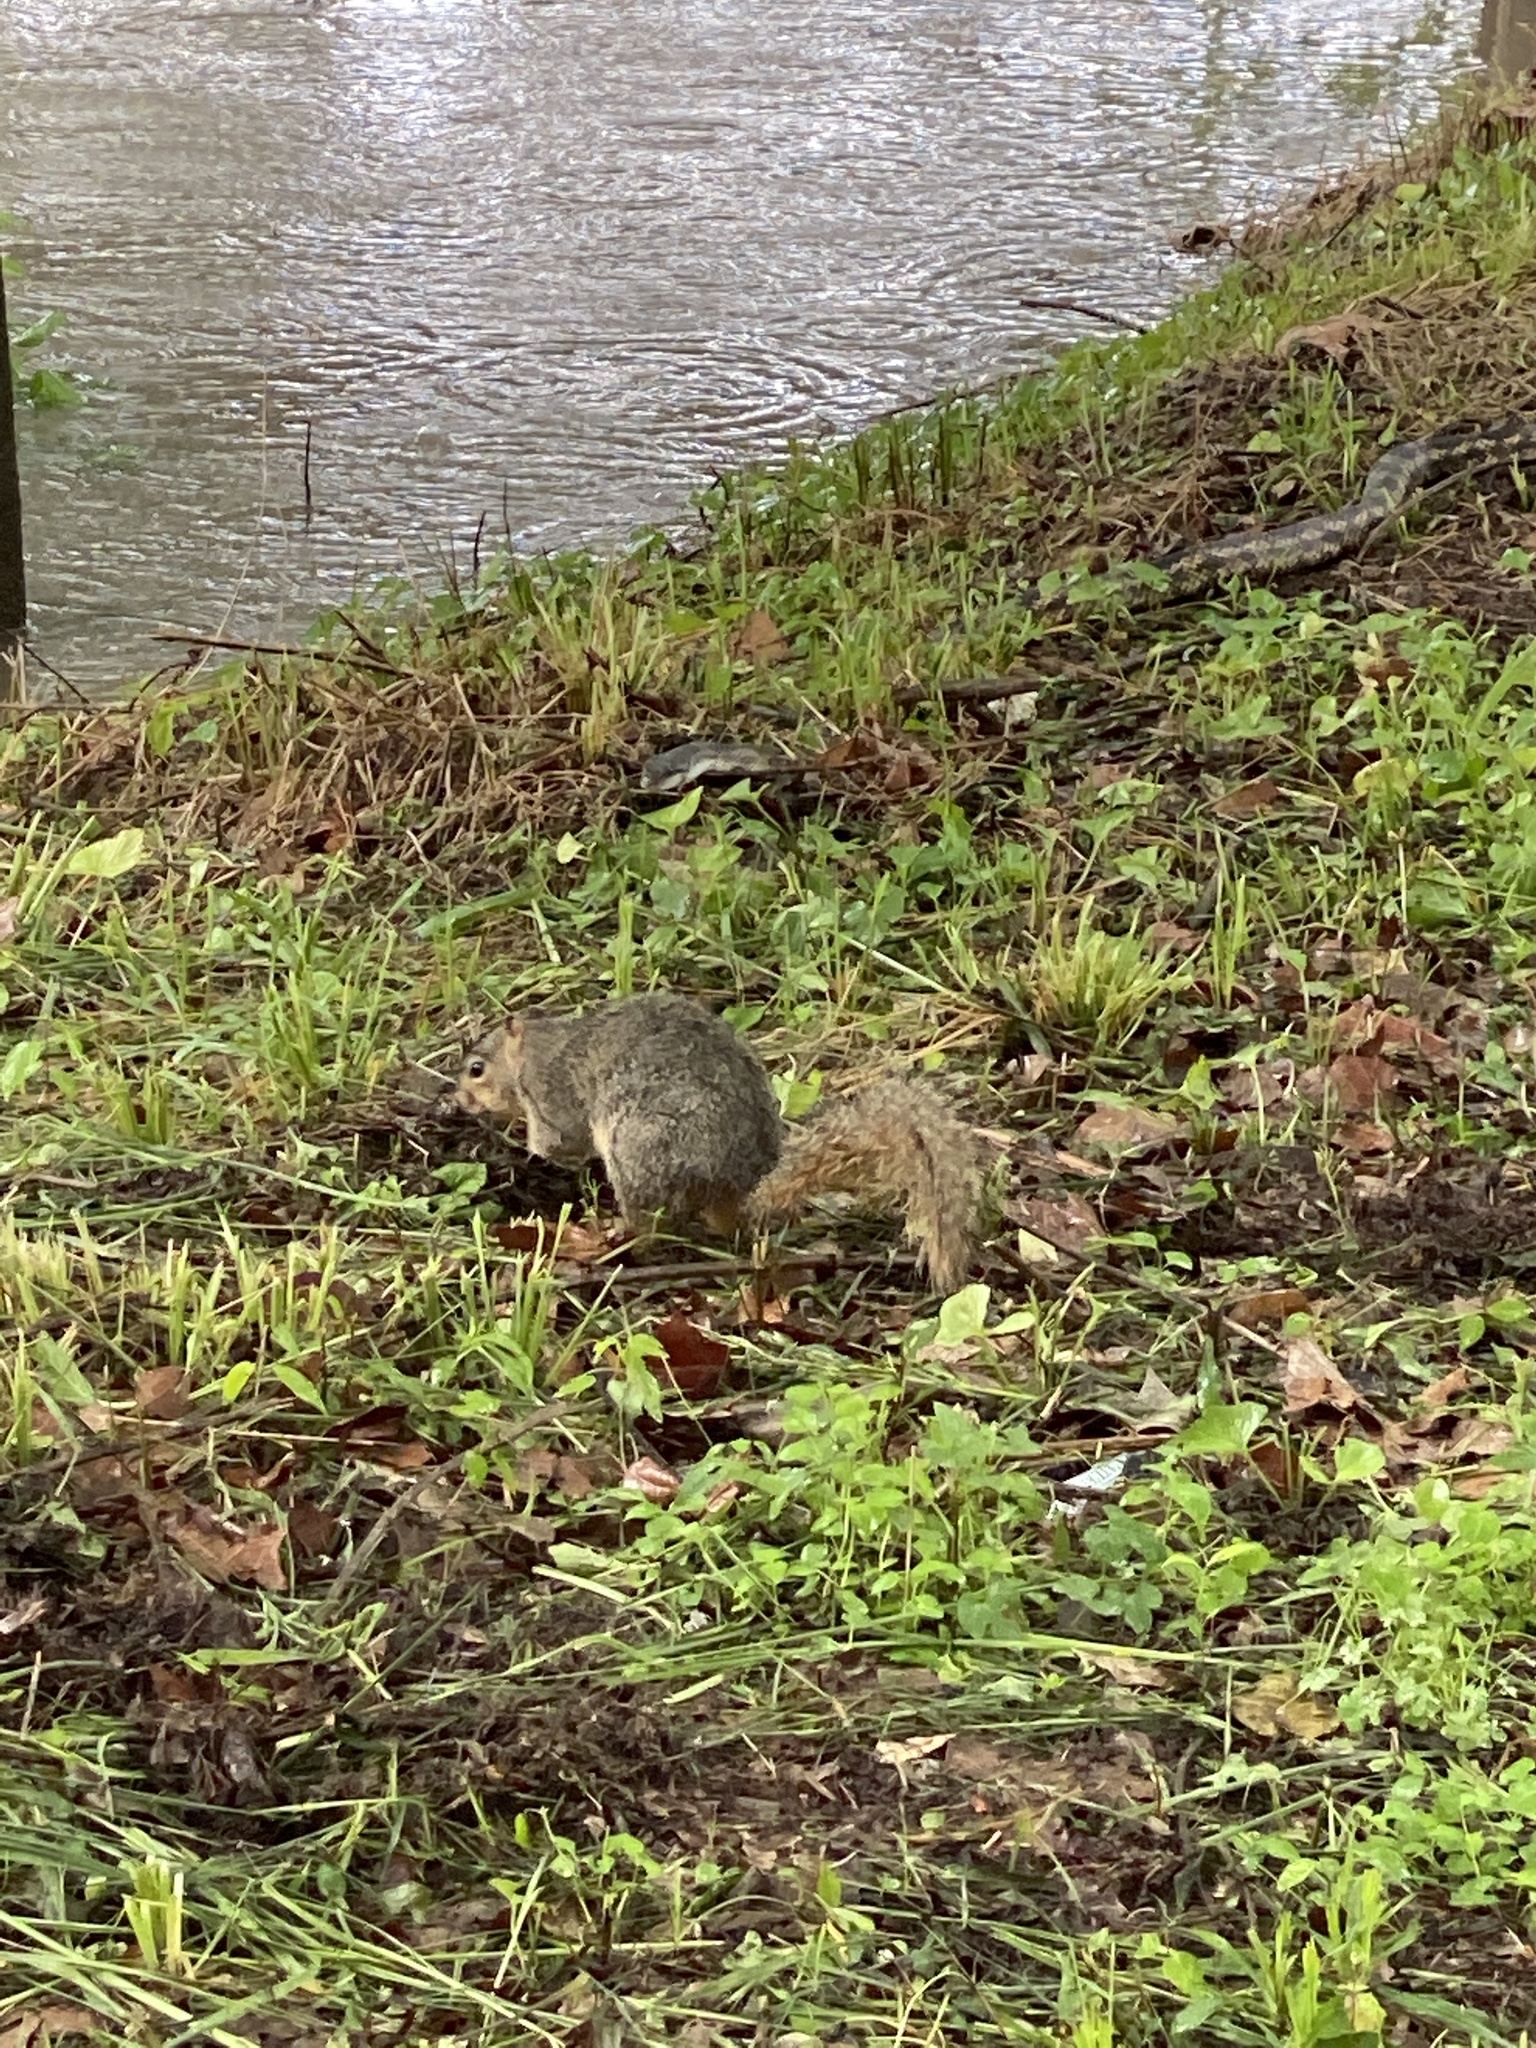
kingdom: Animalia
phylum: Chordata
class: Mammalia
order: Rodentia
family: Sciuridae
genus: Sciurus
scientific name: Sciurus niger
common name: Fox squirrel
